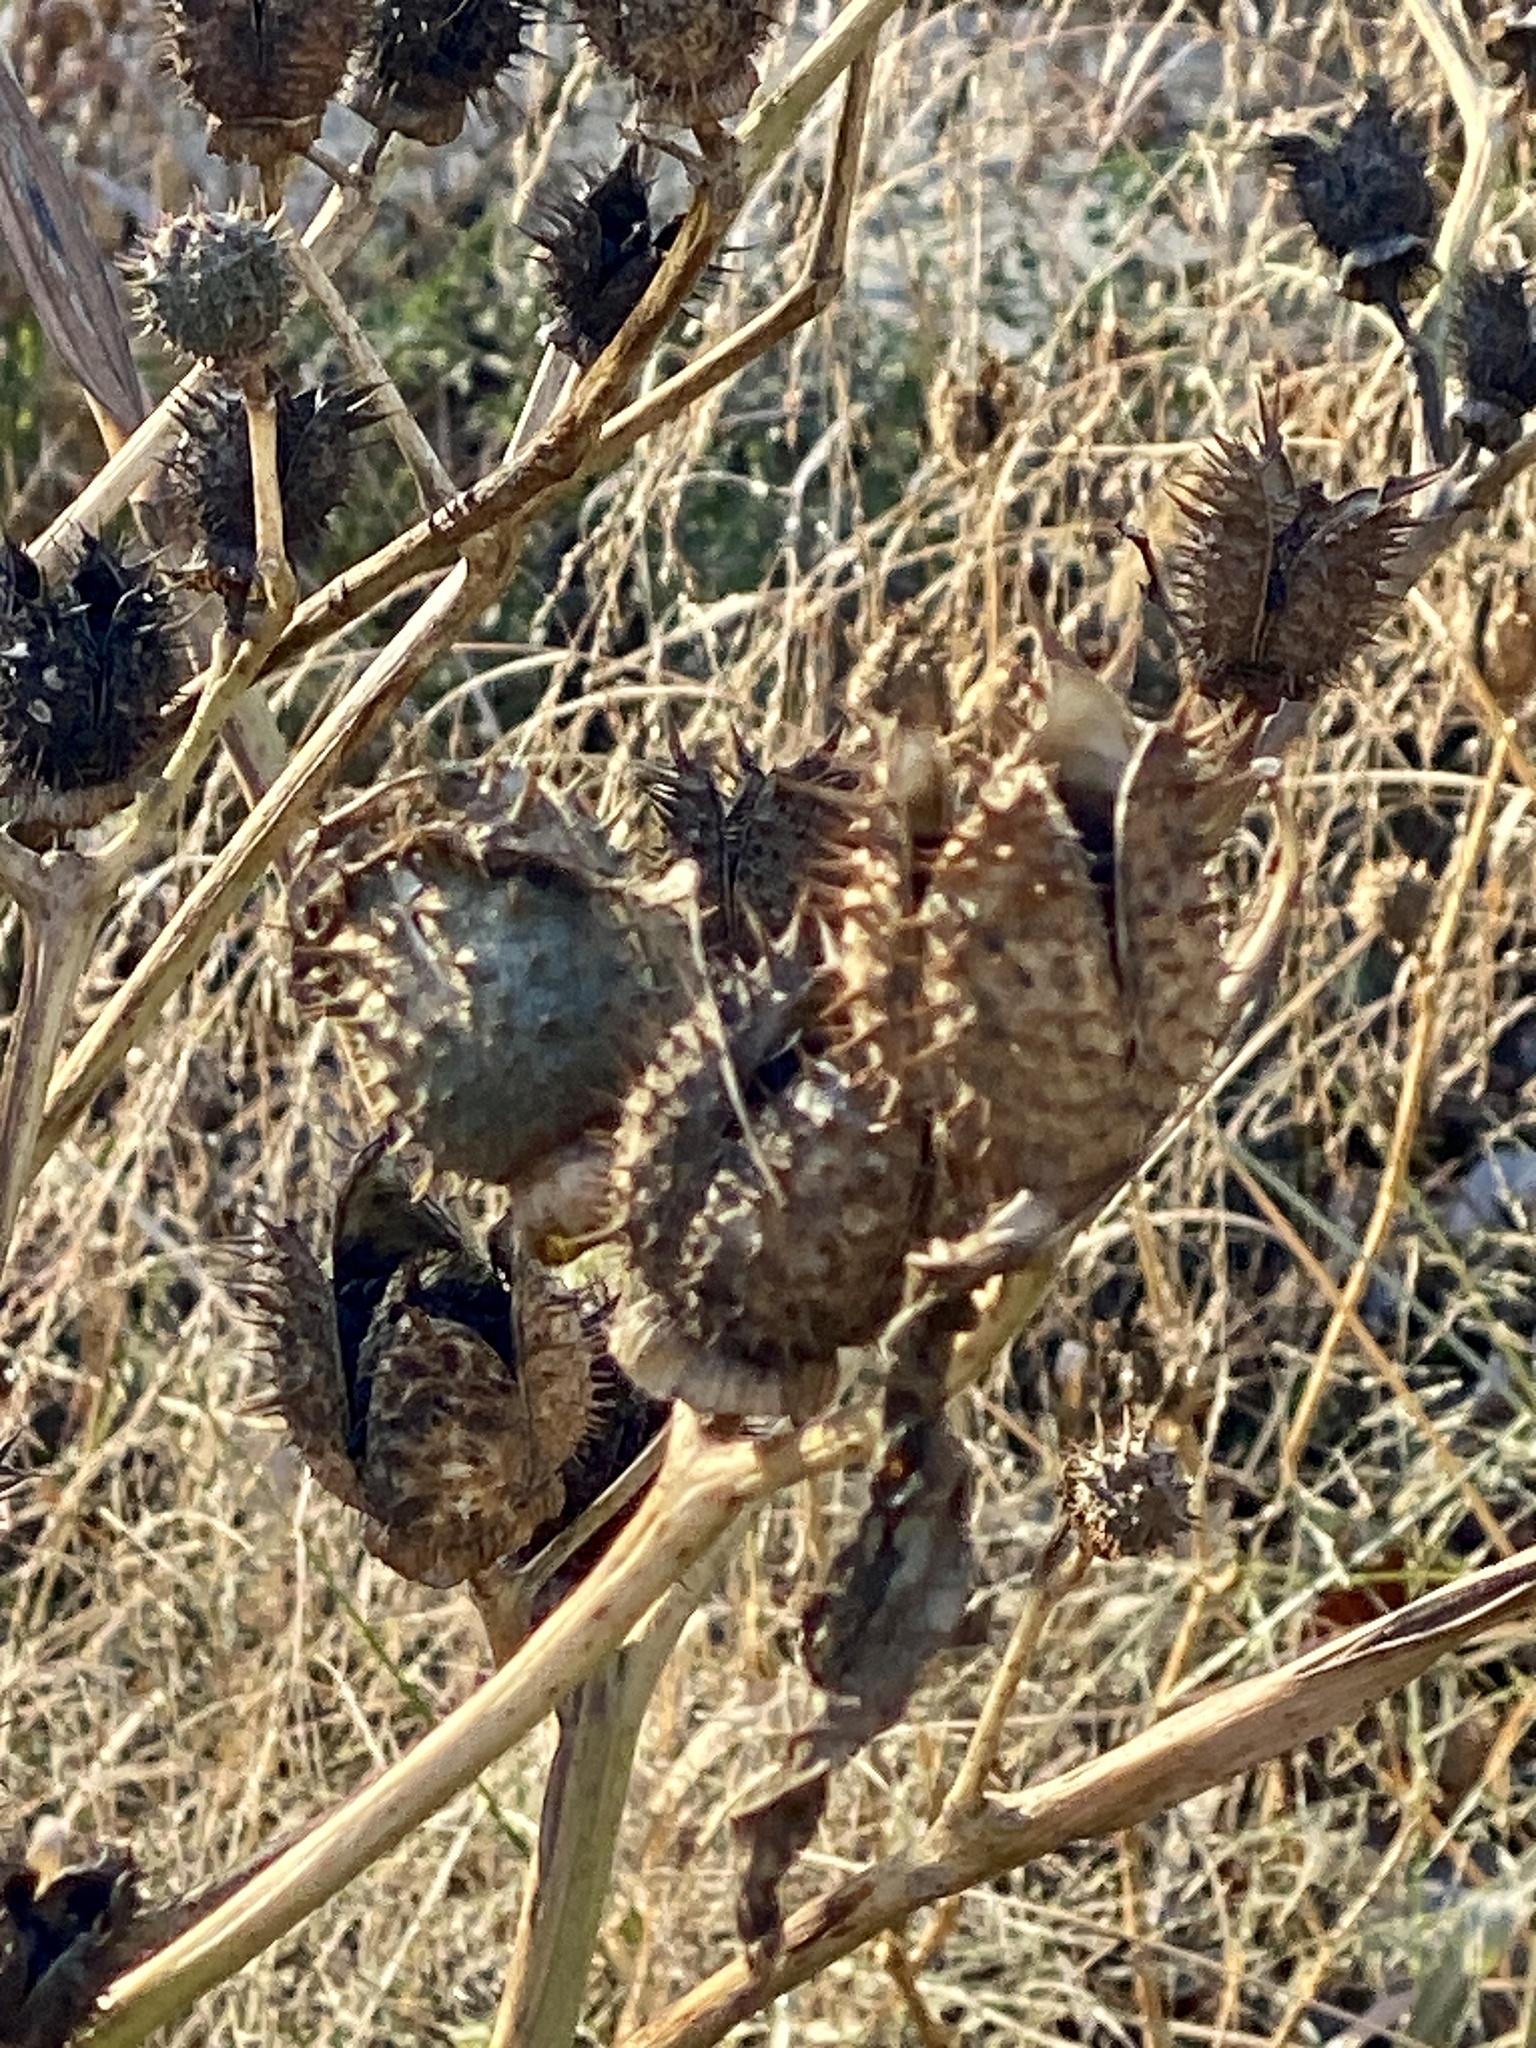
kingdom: Plantae
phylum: Tracheophyta
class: Magnoliopsida
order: Solanales
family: Solanaceae
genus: Datura
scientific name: Datura stramonium
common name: Thorn-apple
